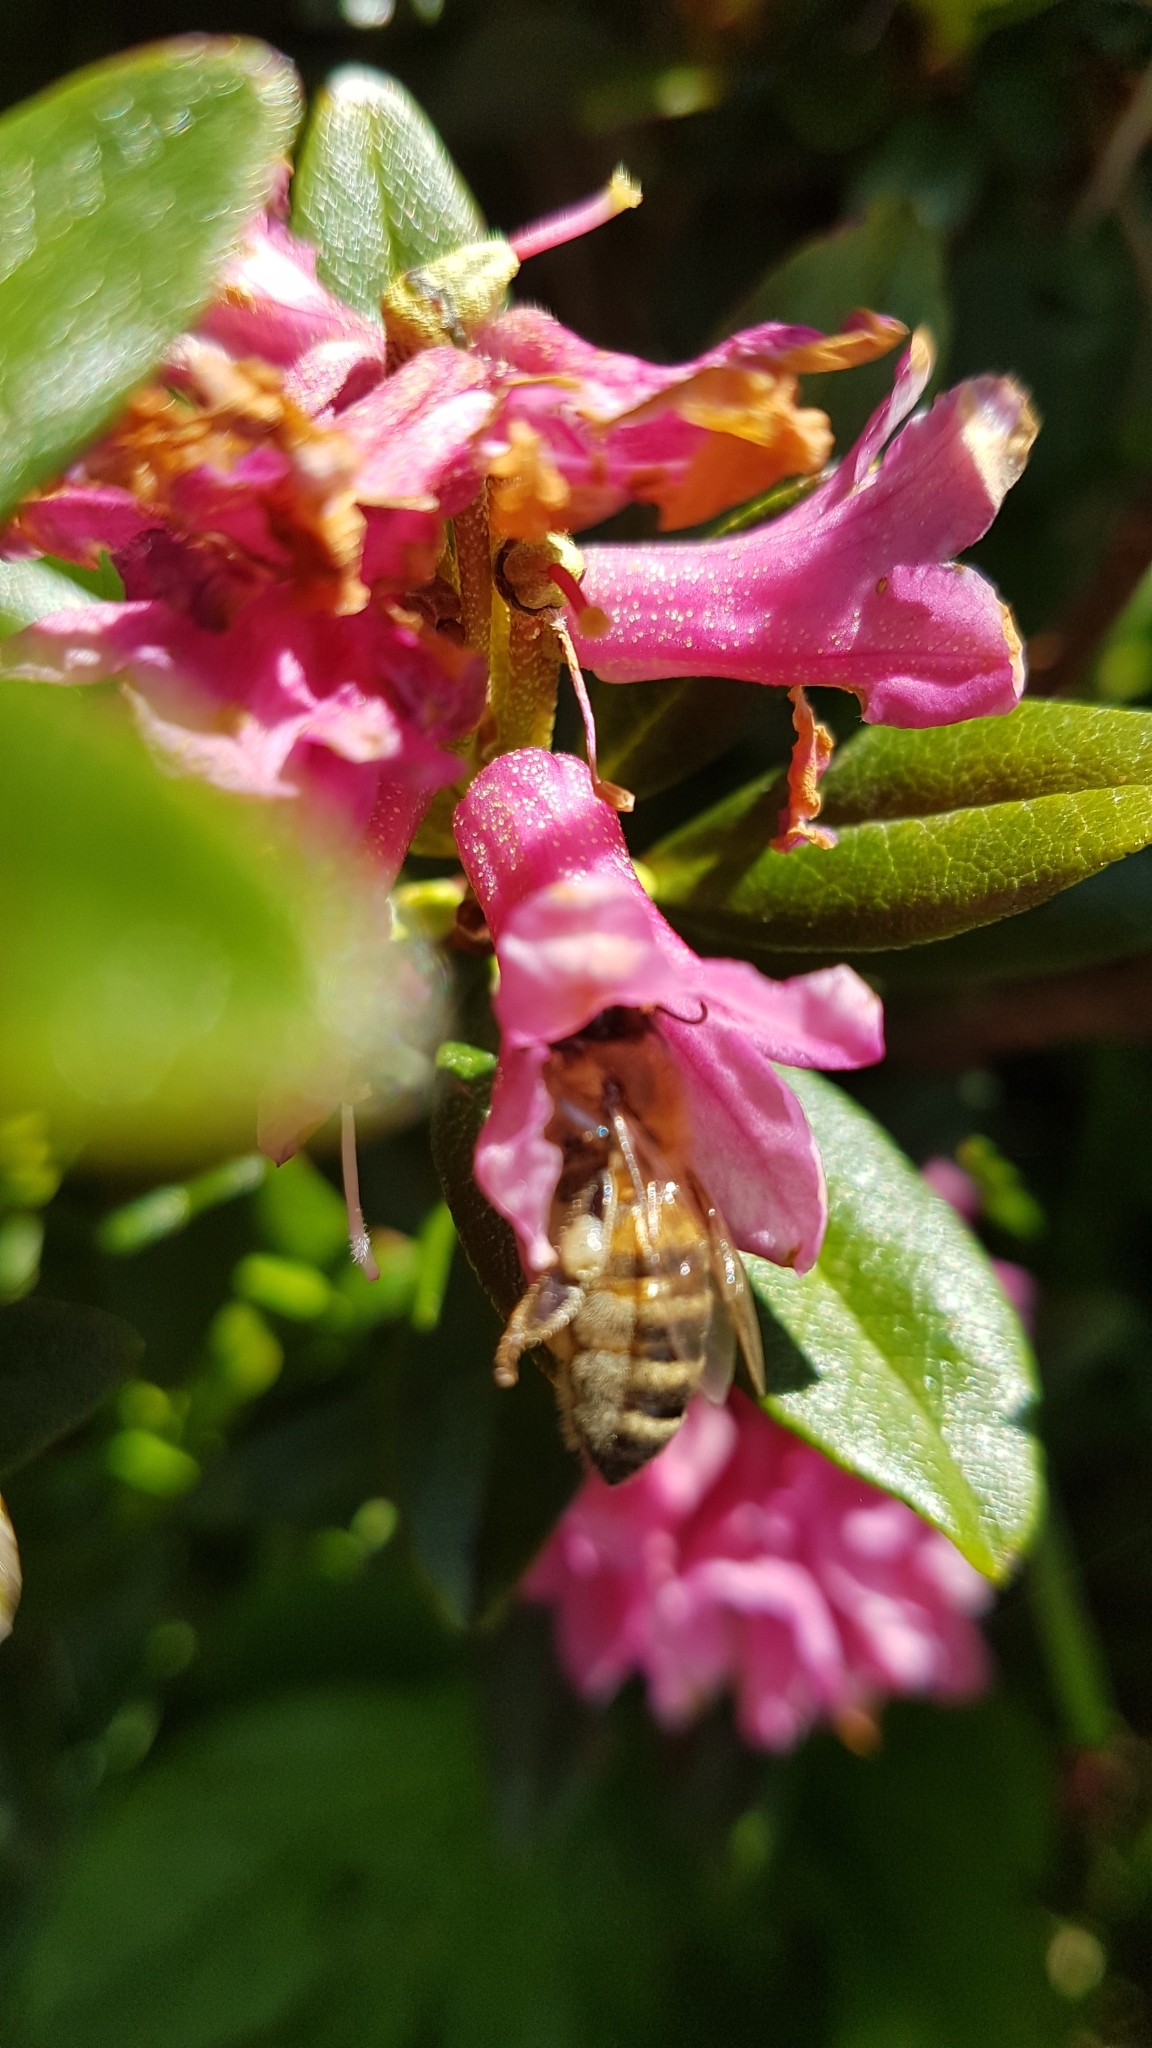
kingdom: Animalia
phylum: Arthropoda
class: Insecta
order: Hymenoptera
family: Apidae
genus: Apis
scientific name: Apis mellifera
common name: Honey bee
